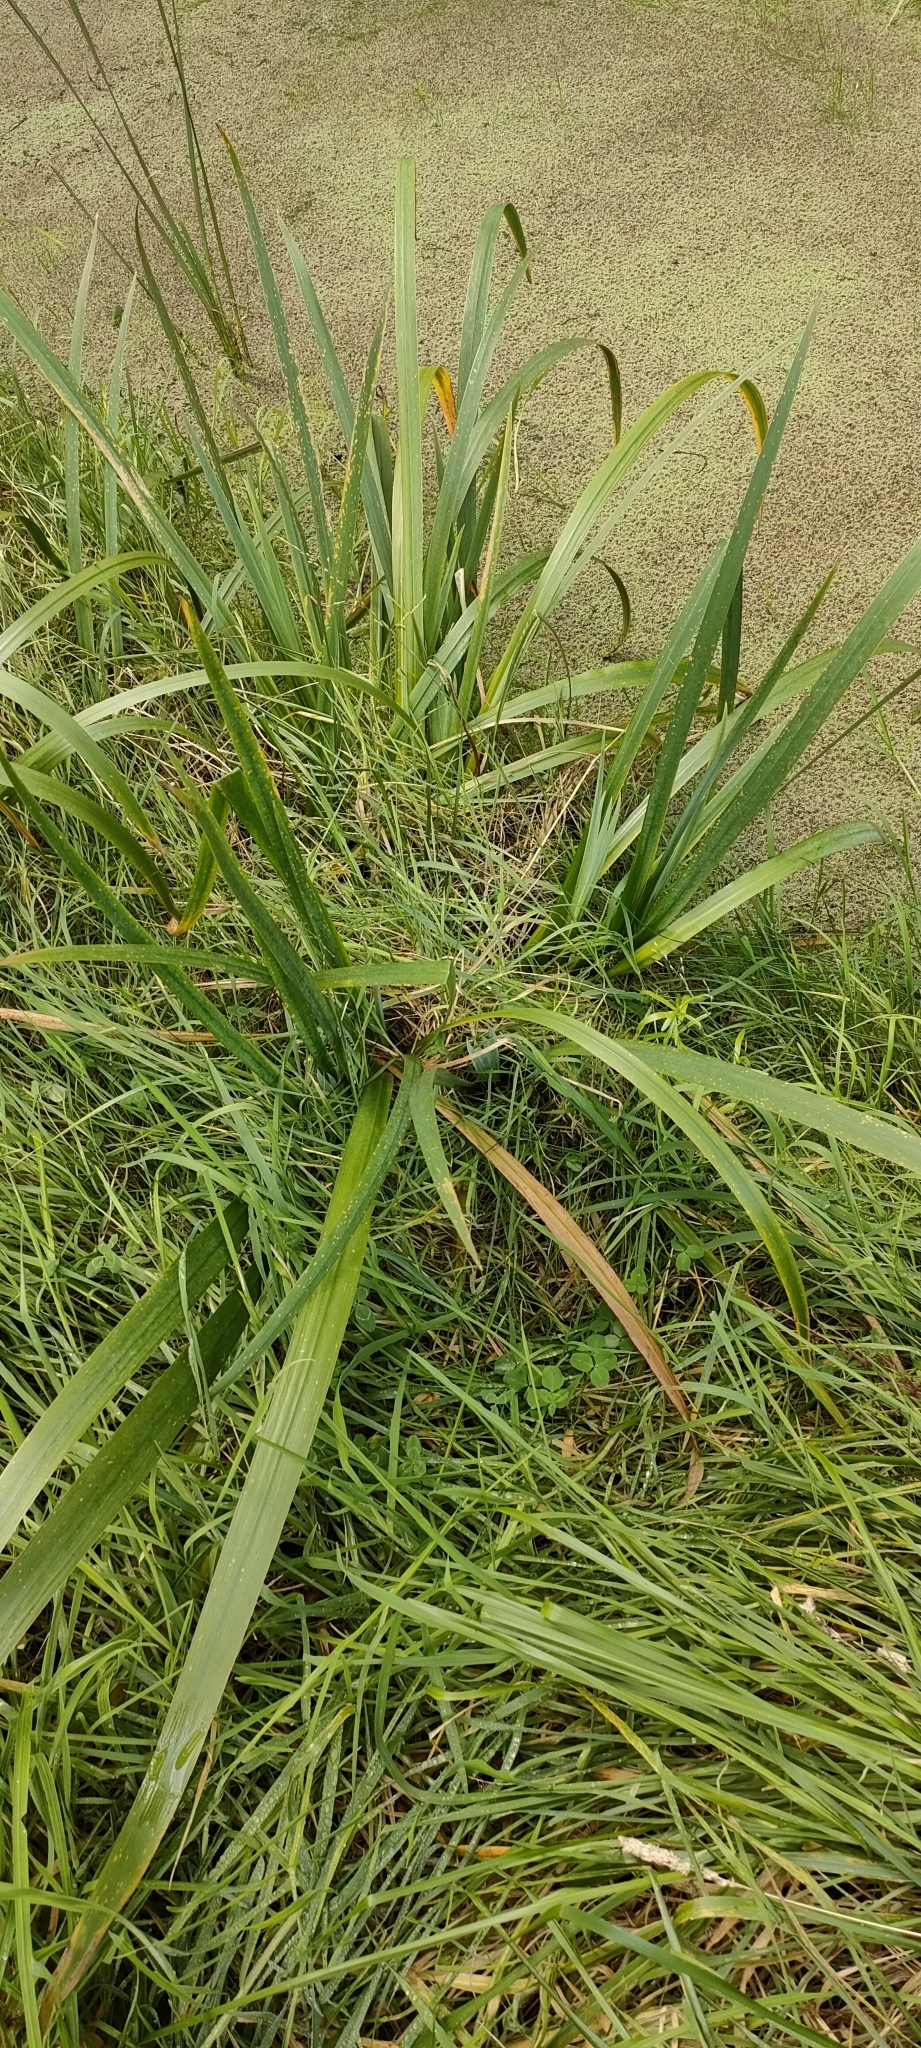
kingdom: Plantae
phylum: Tracheophyta
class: Liliopsida
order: Asparagales
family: Iridaceae
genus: Iris
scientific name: Iris pseudacorus
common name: Yellow flag
